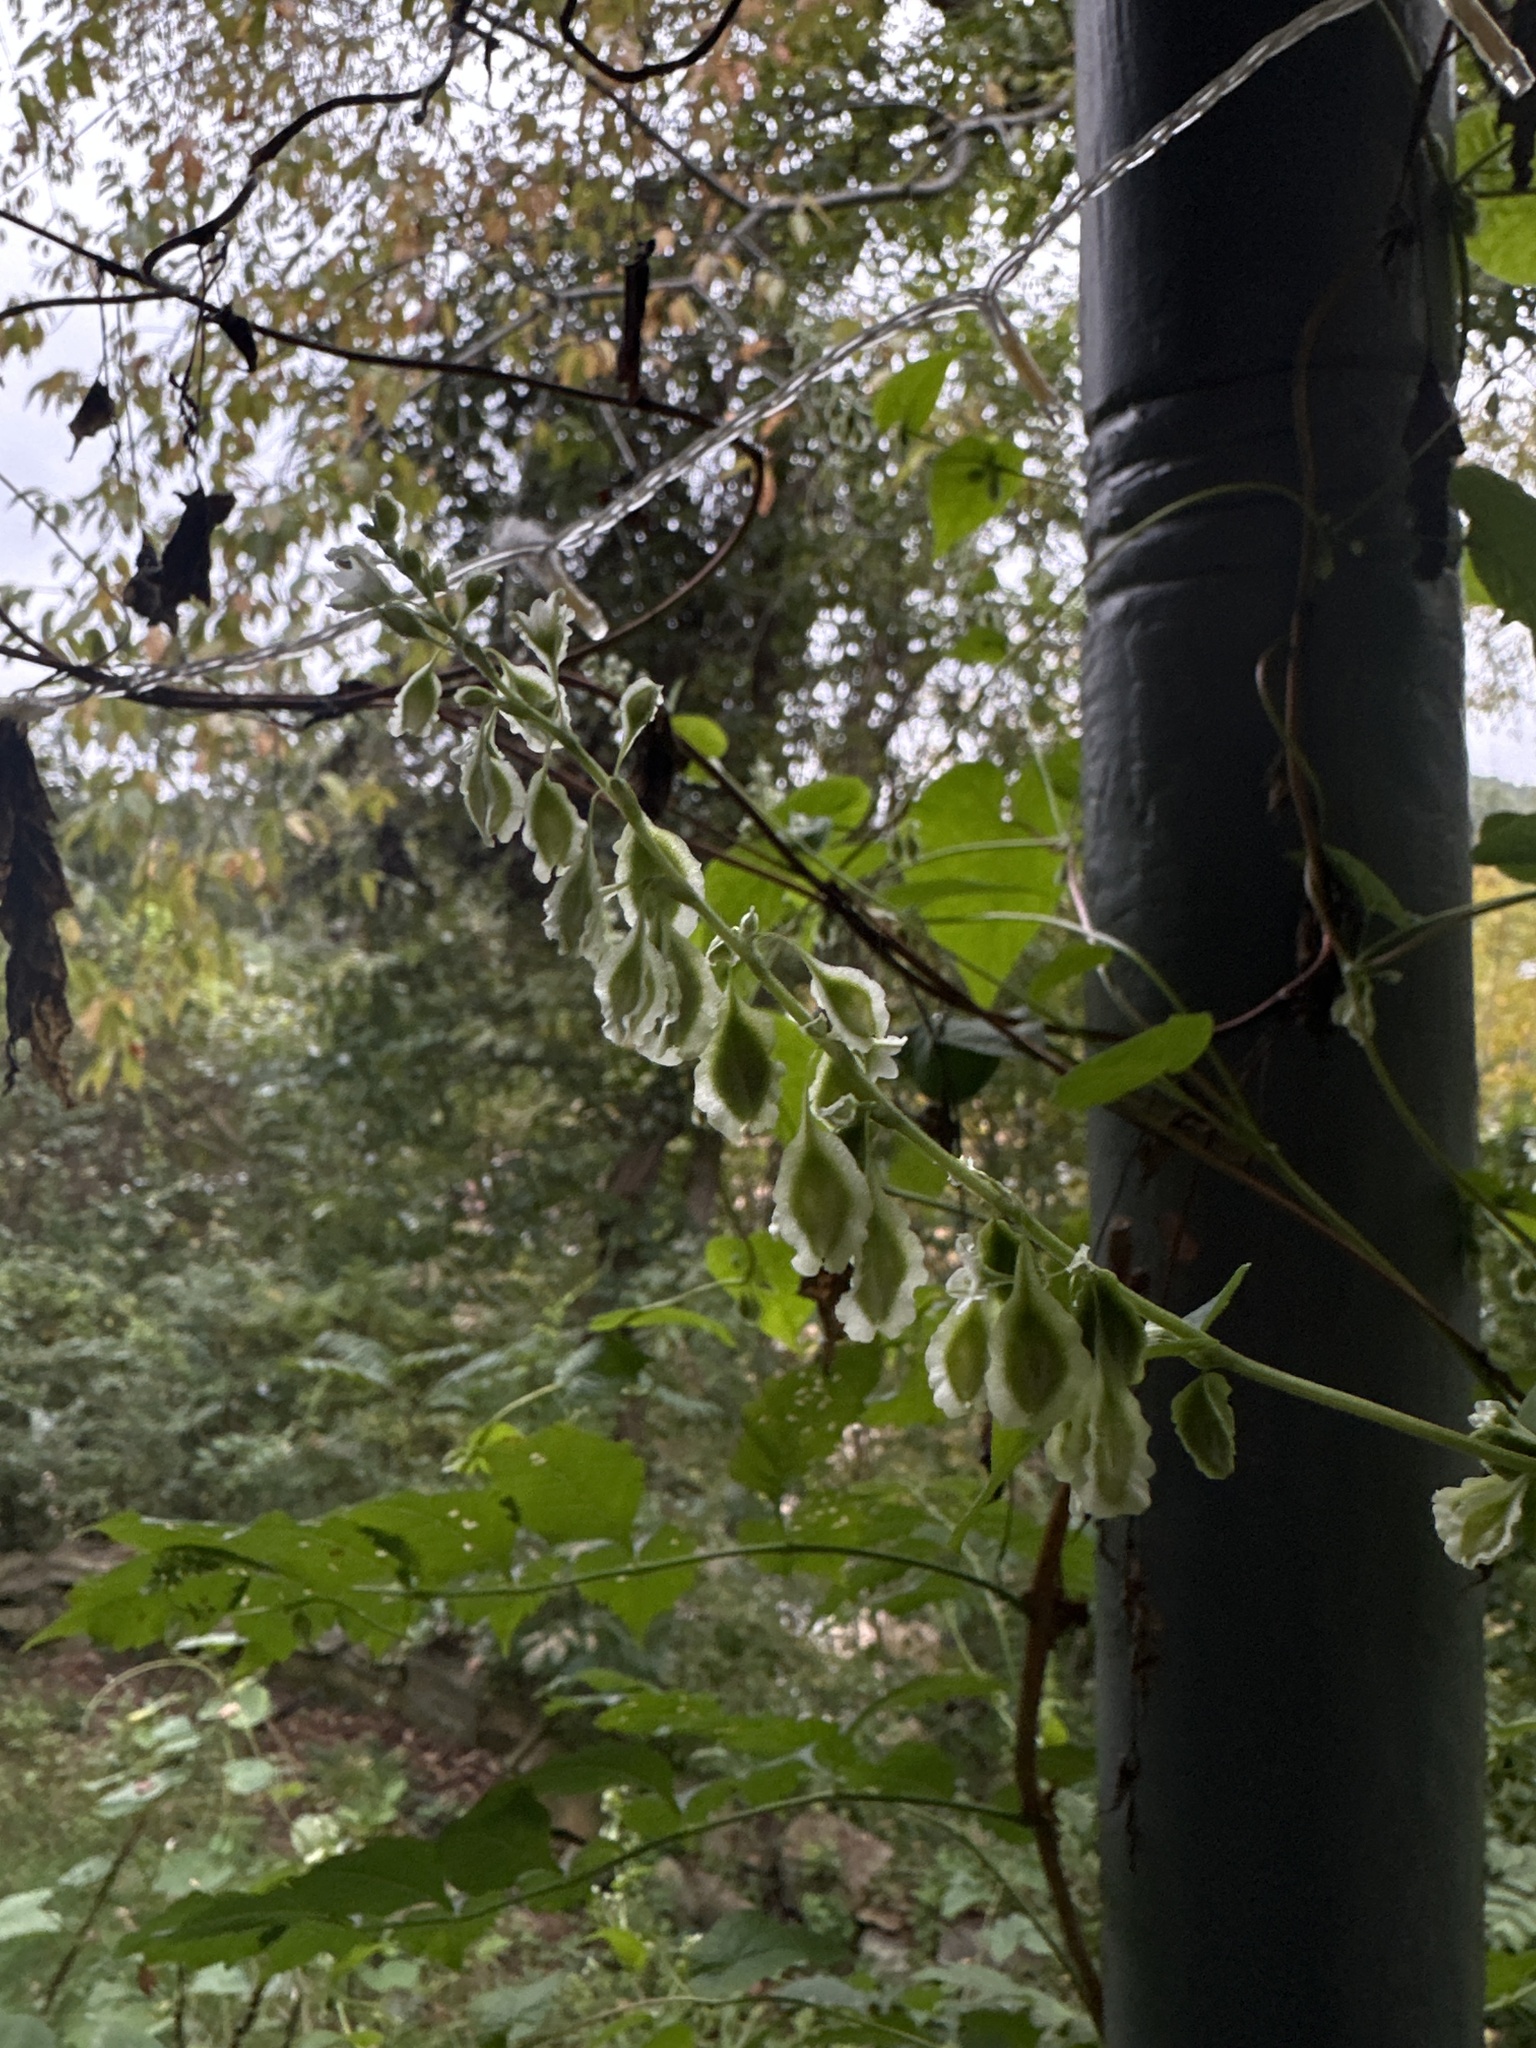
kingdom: Plantae
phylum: Tracheophyta
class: Magnoliopsida
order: Caryophyllales
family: Polygonaceae
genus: Fallopia
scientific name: Fallopia scandens
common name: Climbing false buckwheat
